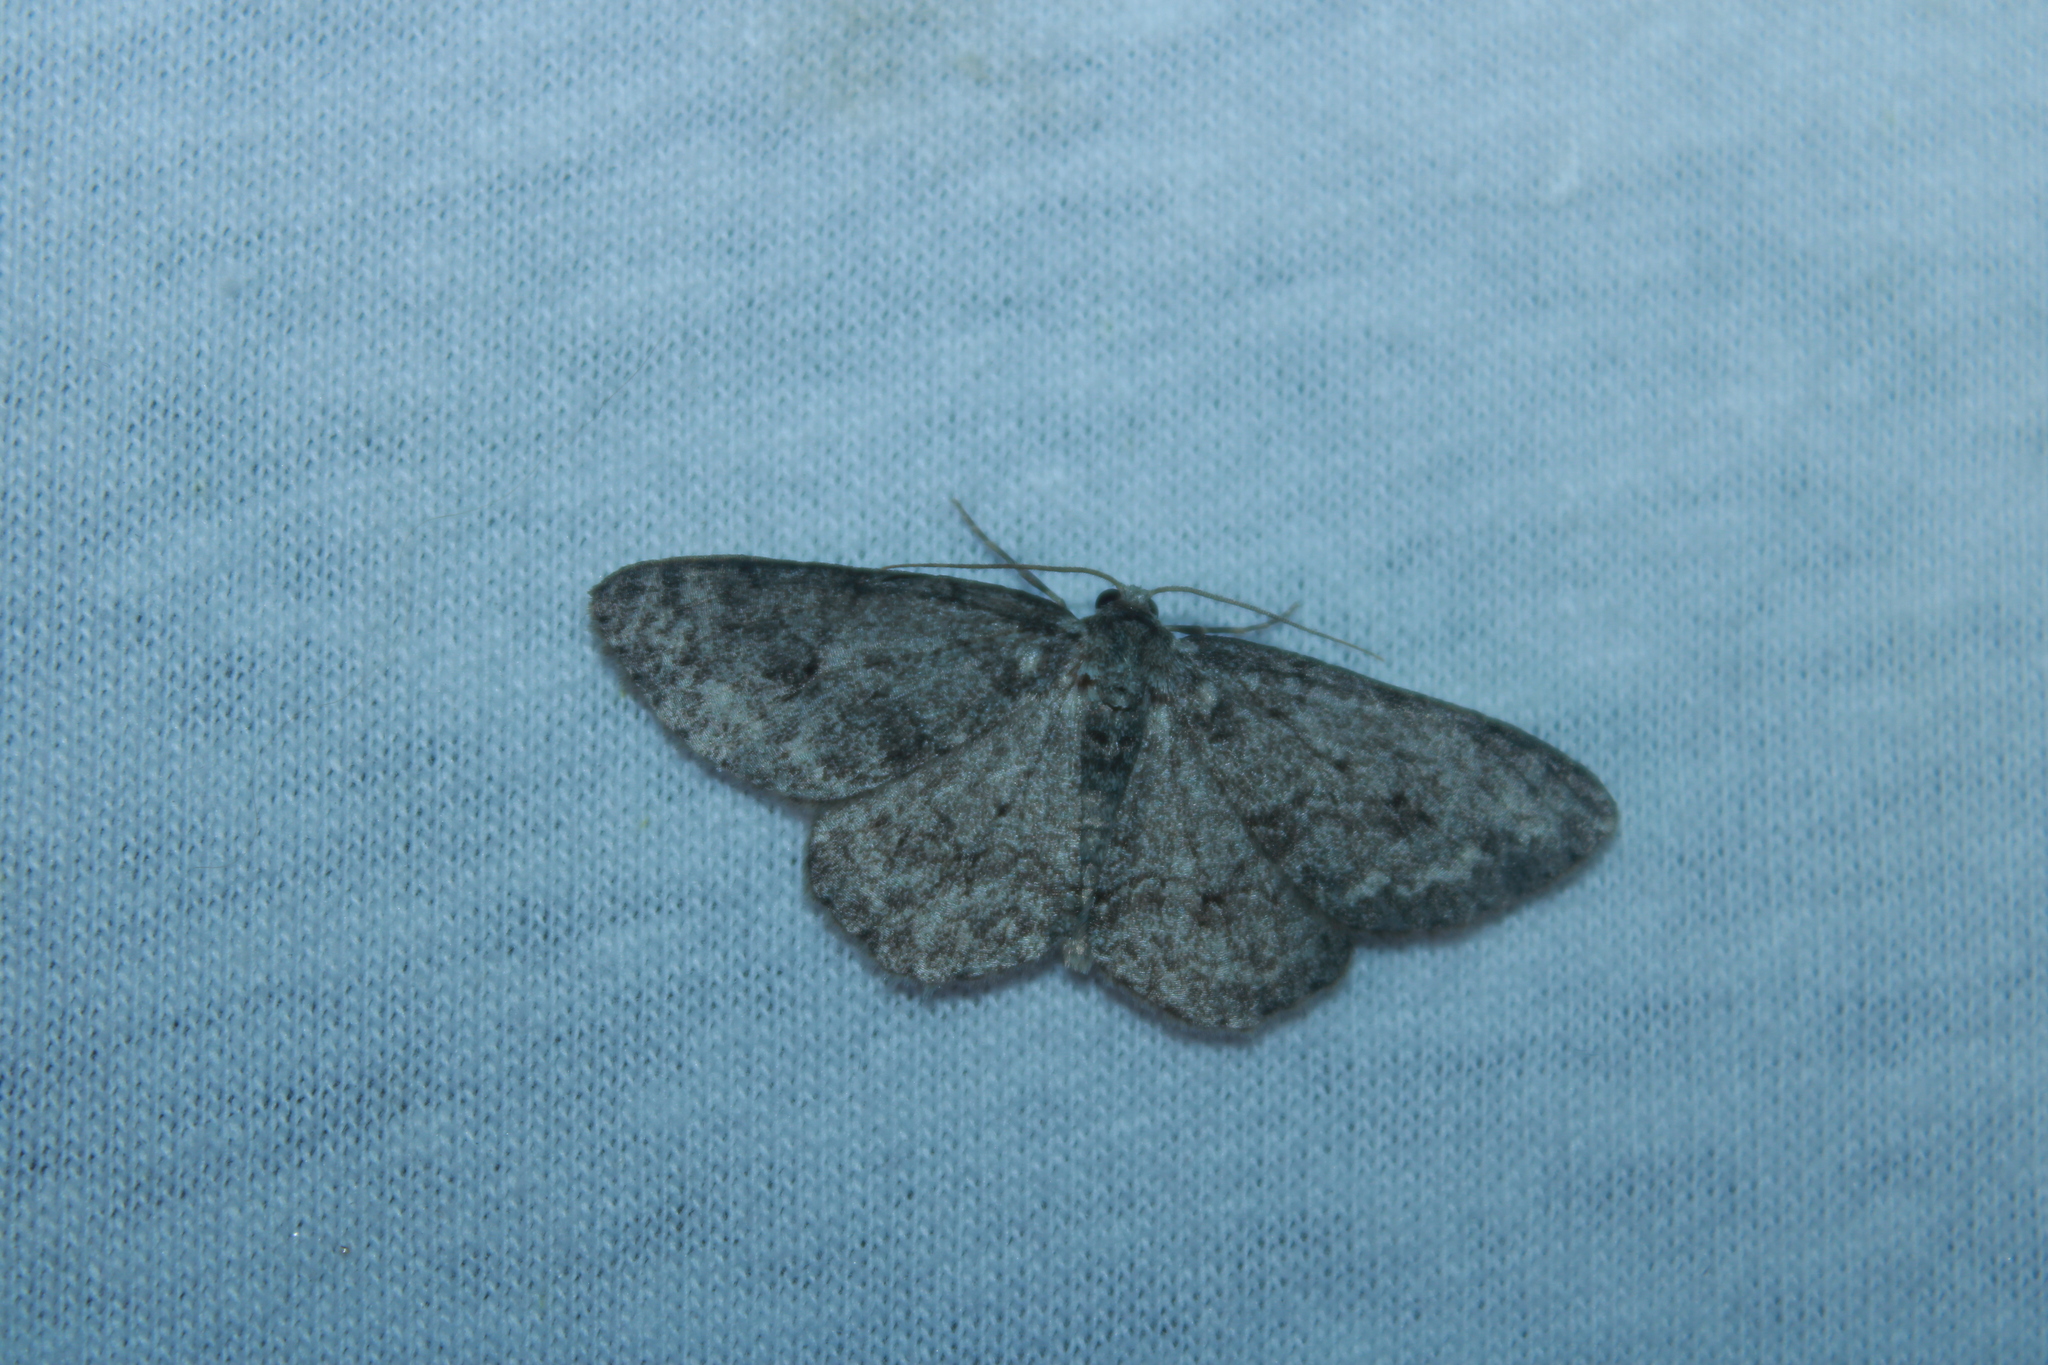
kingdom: Animalia
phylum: Arthropoda
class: Insecta
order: Lepidoptera
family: Geometridae
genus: Ectropis
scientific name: Ectropis crepuscularia
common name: Engrailed
